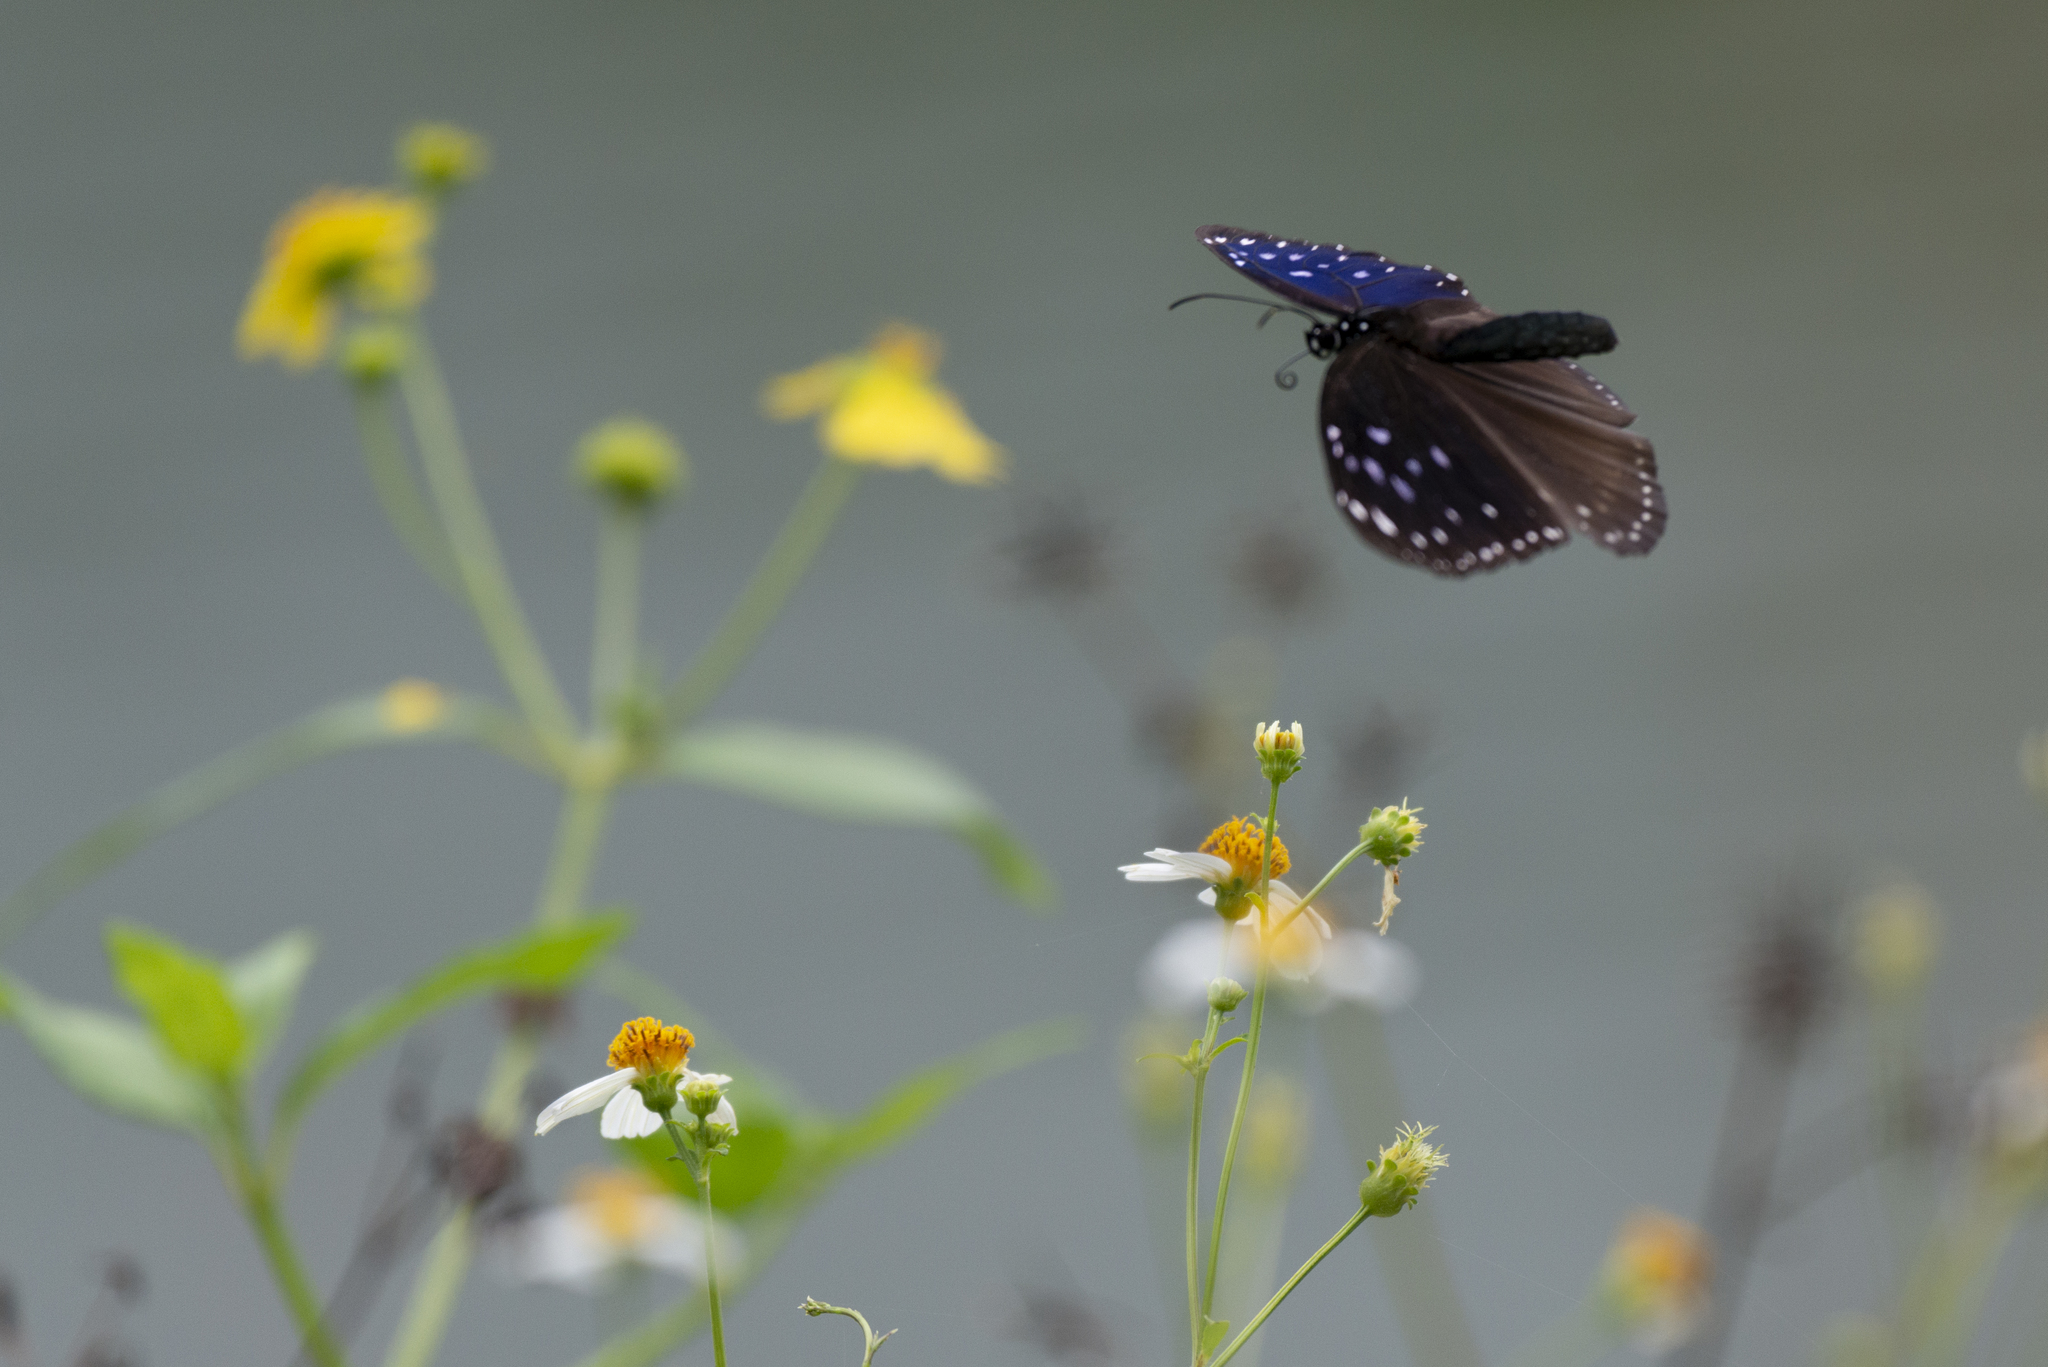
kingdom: Animalia
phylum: Arthropoda
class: Insecta
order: Lepidoptera
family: Nymphalidae
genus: Euploea
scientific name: Euploea midamus
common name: Blue-spotted crow butterfly
